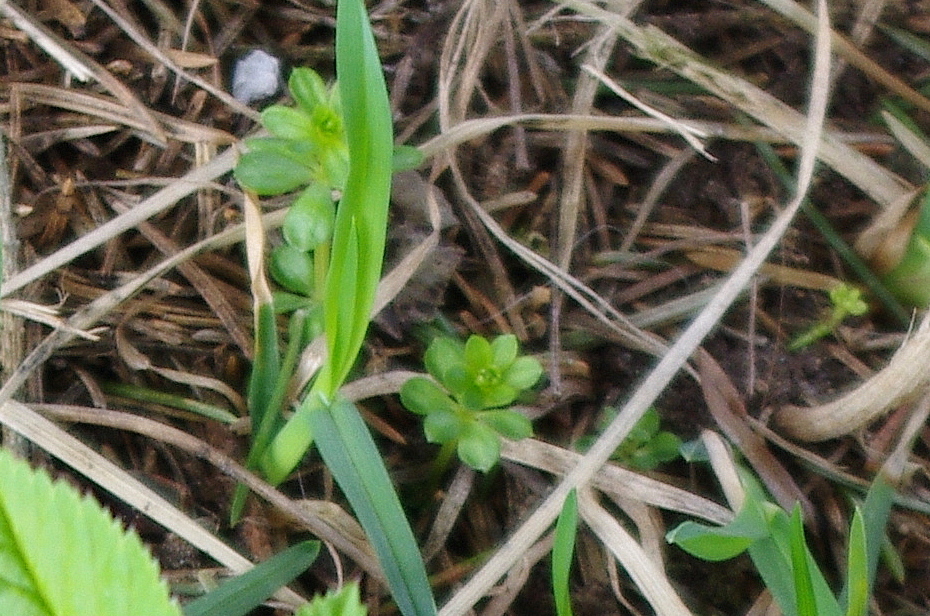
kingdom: Plantae
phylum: Tracheophyta
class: Magnoliopsida
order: Gentianales
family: Rubiaceae
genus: Galium
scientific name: Galium mollugo
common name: Hedge bedstraw
